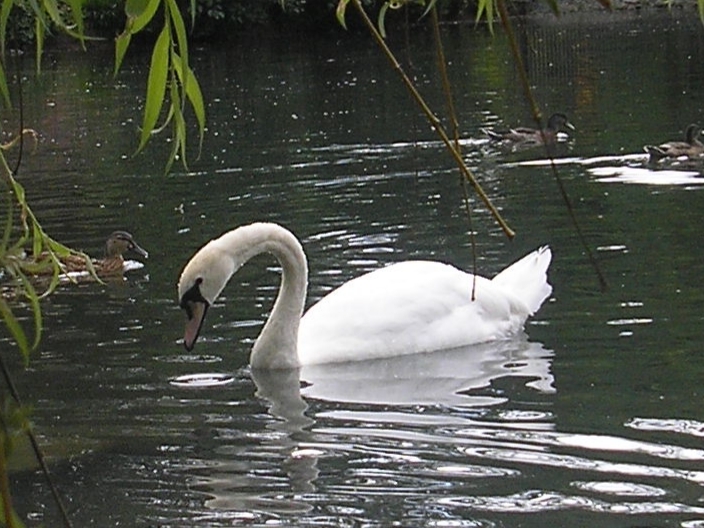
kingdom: Animalia
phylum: Chordata
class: Aves
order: Anseriformes
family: Anatidae
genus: Cygnus
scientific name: Cygnus olor
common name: Mute swan
